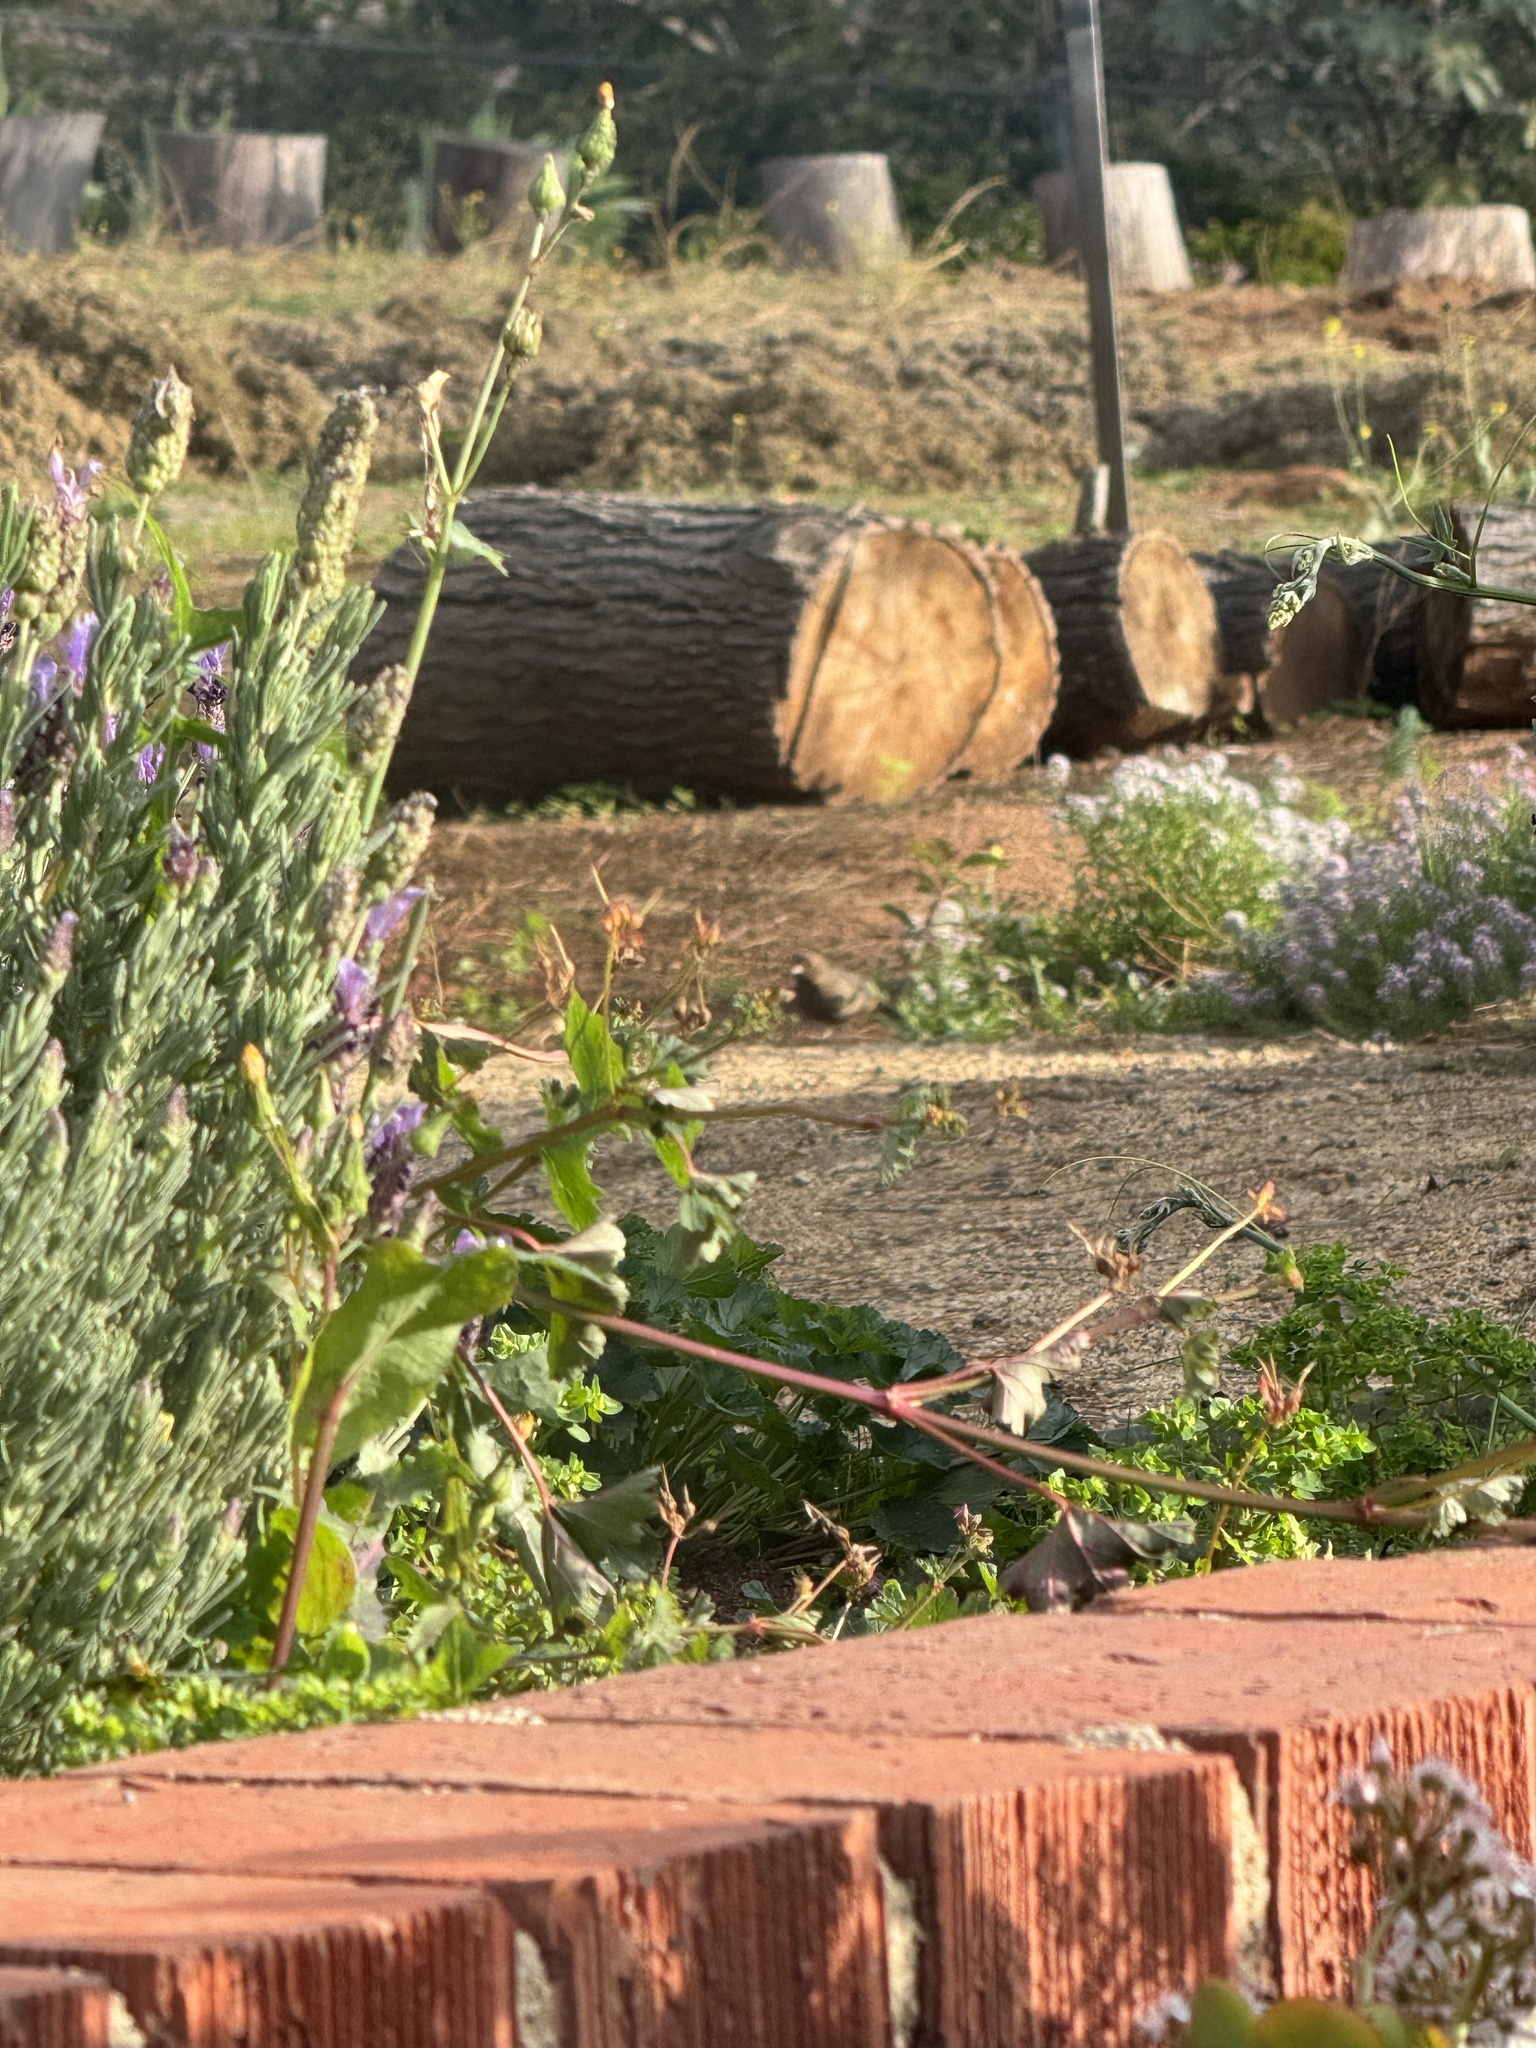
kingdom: Animalia
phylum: Chordata
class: Aves
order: Passeriformes
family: Passerellidae
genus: Melozone
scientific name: Melozone crissalis
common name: California towhee
